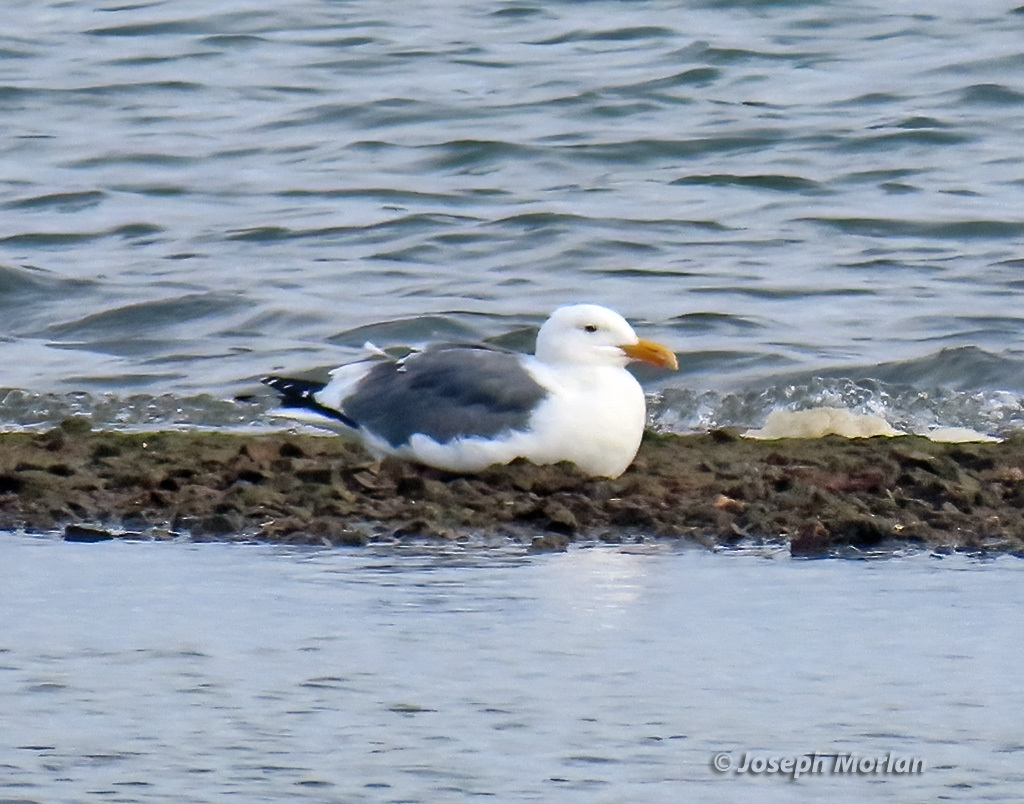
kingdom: Animalia
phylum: Chordata
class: Aves
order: Charadriiformes
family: Laridae
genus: Larus
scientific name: Larus occidentalis
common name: Western gull
